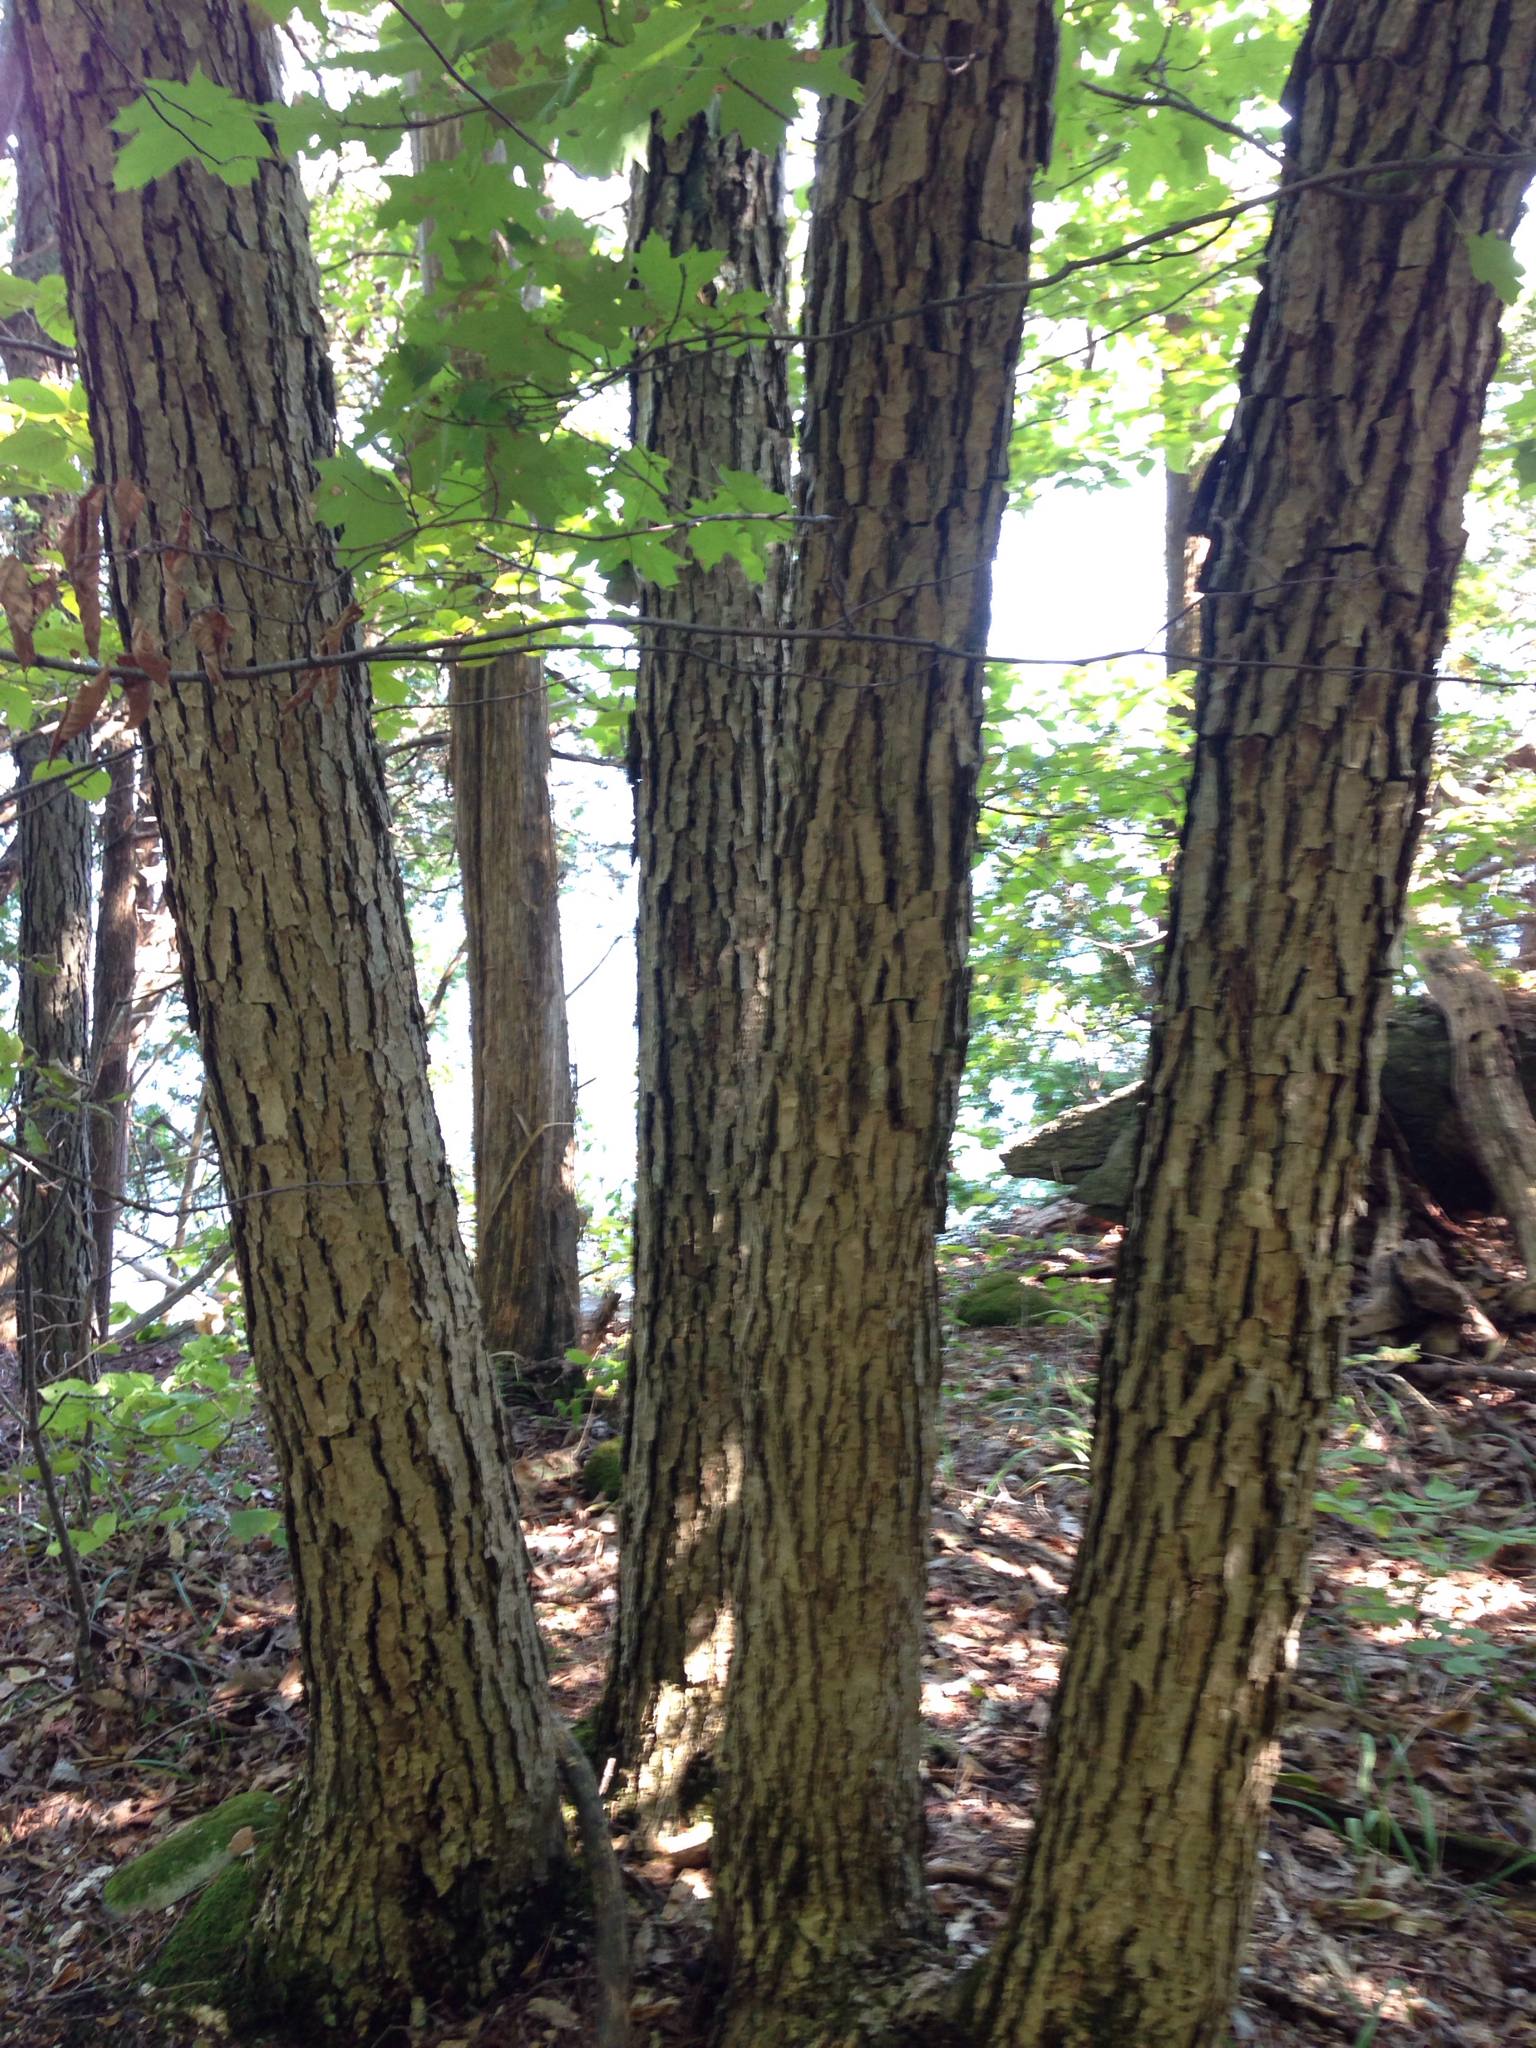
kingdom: Plantae
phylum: Tracheophyta
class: Magnoliopsida
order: Fagales
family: Fagaceae
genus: Quercus
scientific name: Quercus muehlenbergii
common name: Chinkapin oak
